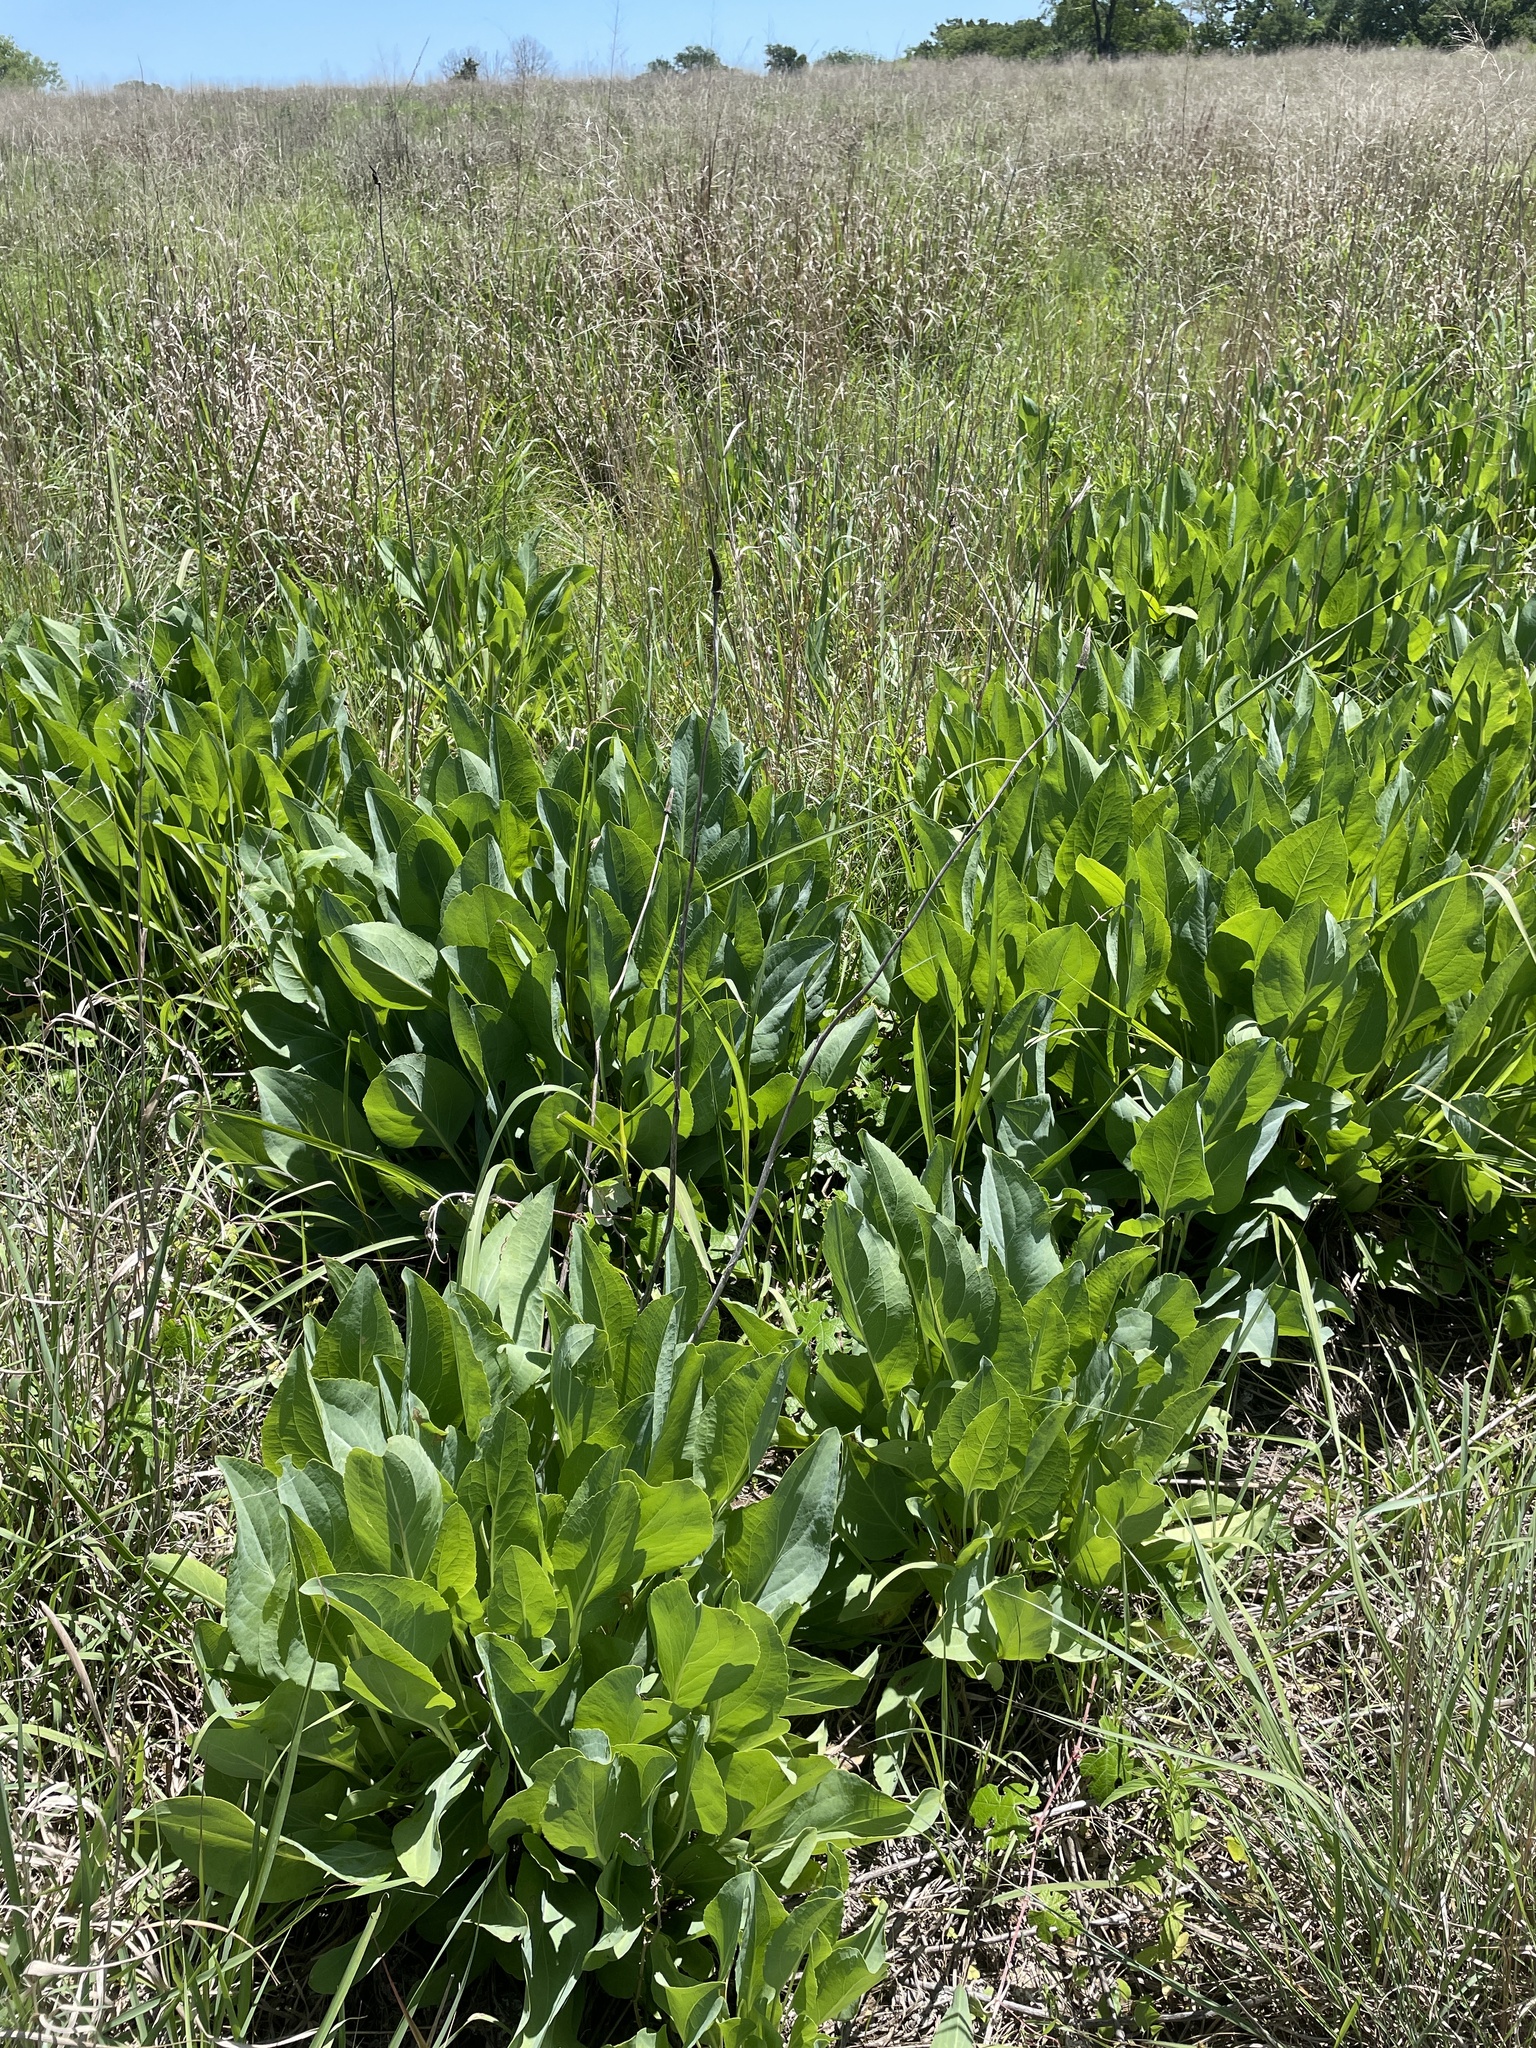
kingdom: Plantae
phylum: Tracheophyta
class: Magnoliopsida
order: Asterales
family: Asteraceae
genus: Rudbeckia
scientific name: Rudbeckia maxima
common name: Cabbage coneflower
